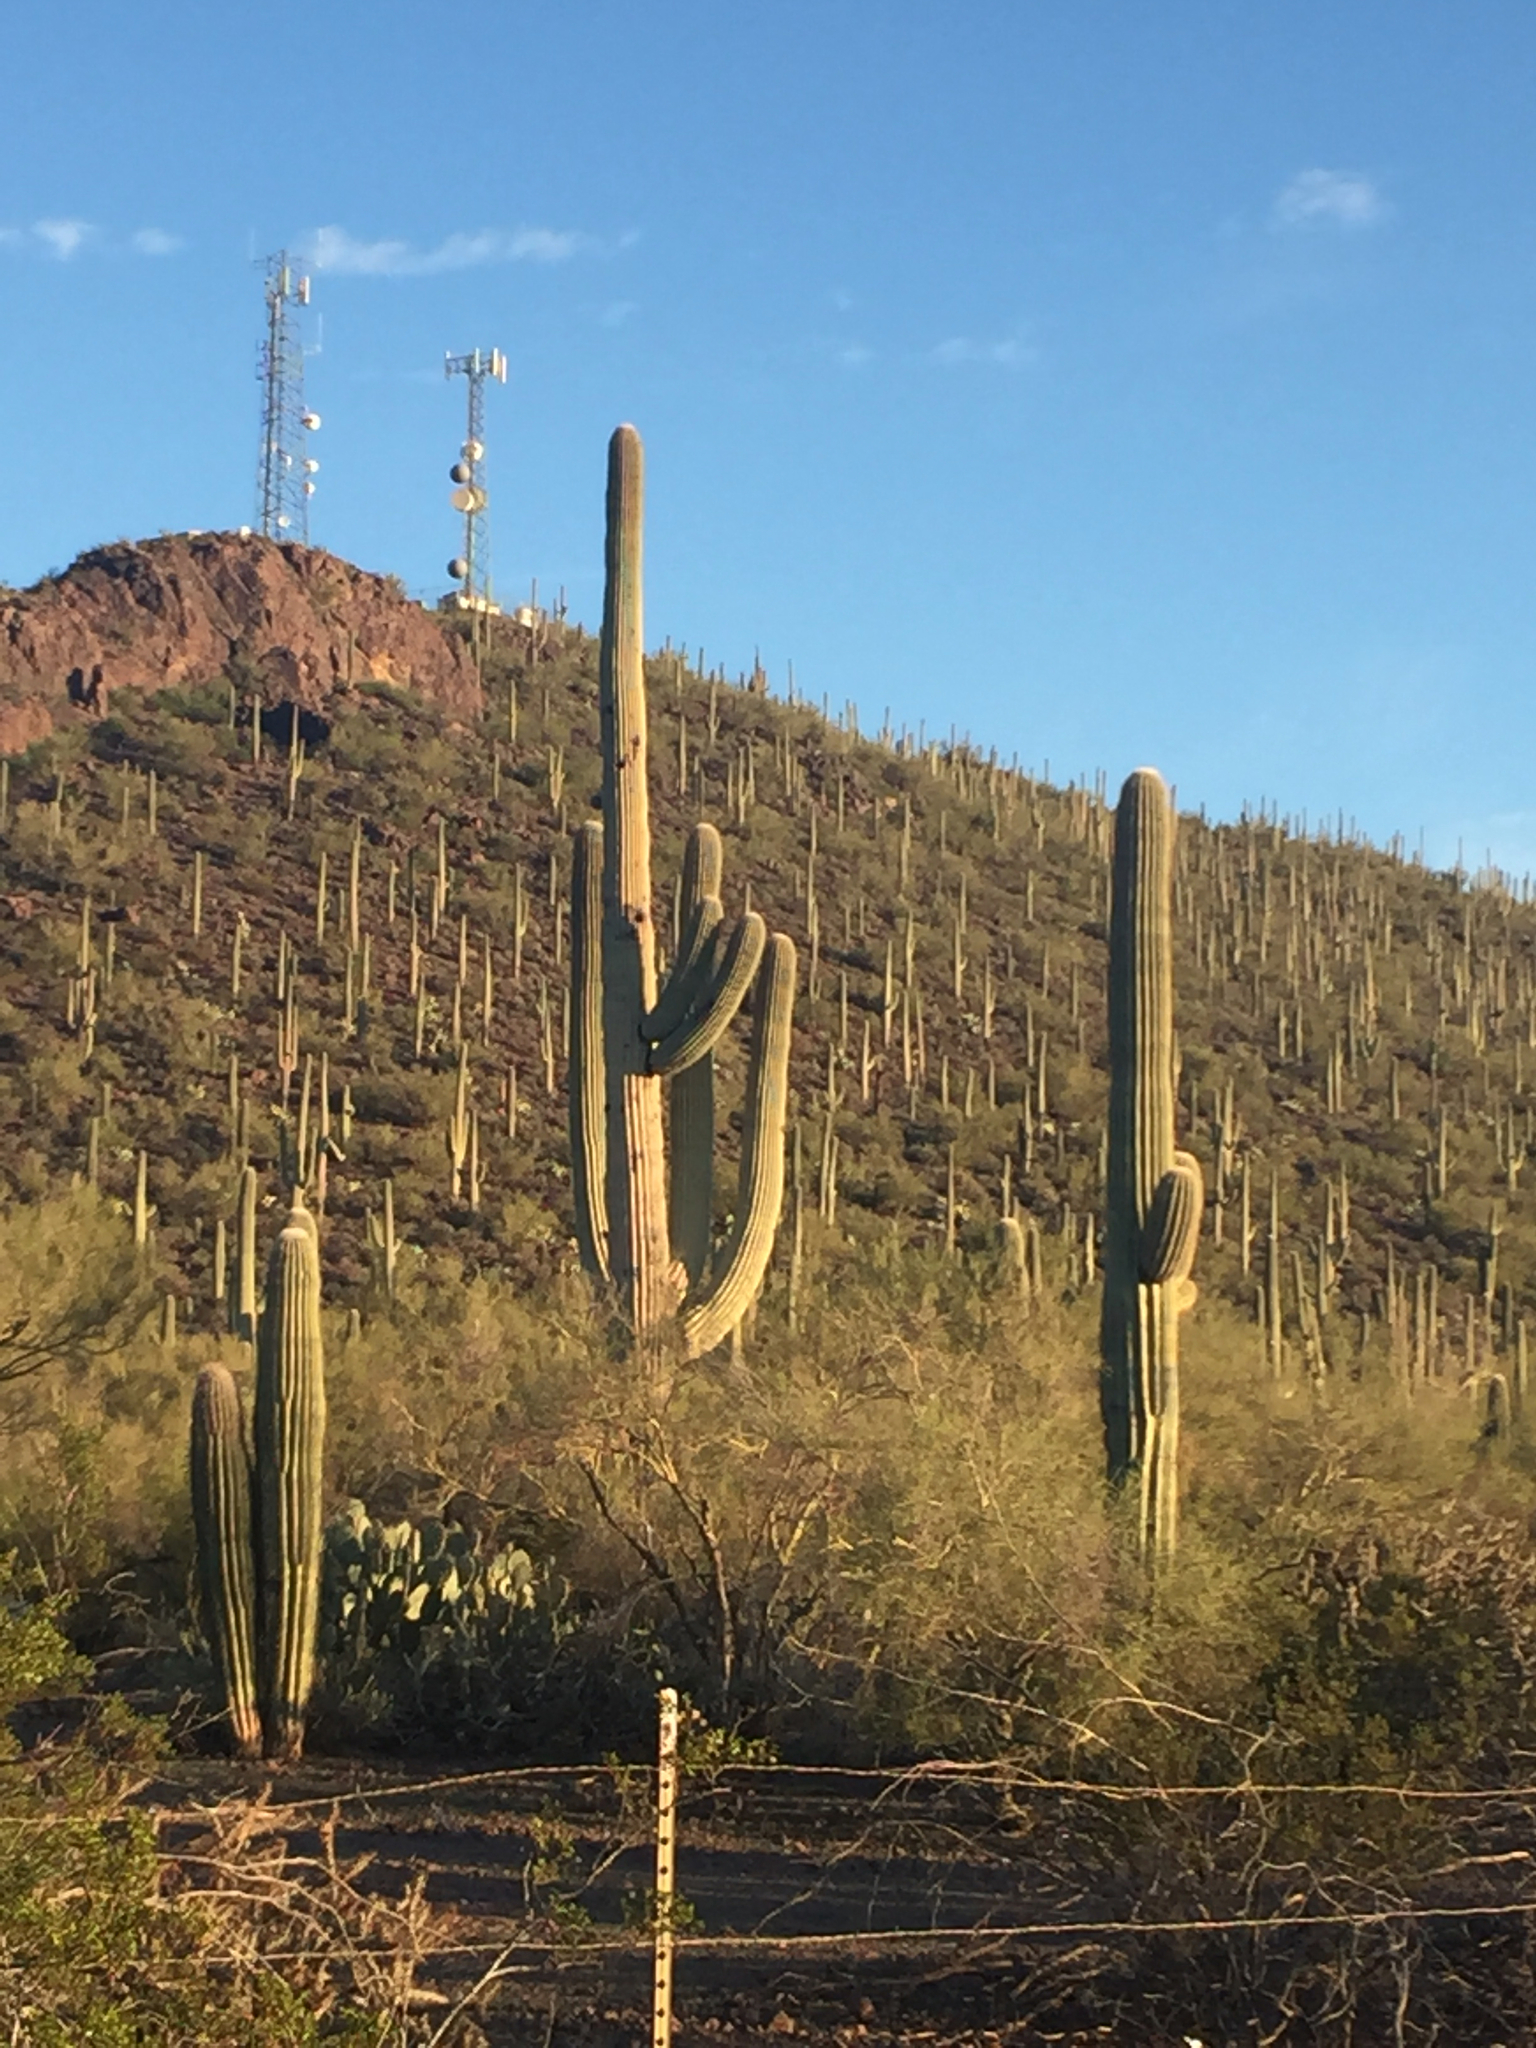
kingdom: Plantae
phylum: Tracheophyta
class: Magnoliopsida
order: Caryophyllales
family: Cactaceae
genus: Carnegiea
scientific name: Carnegiea gigantea
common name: Saguaro
